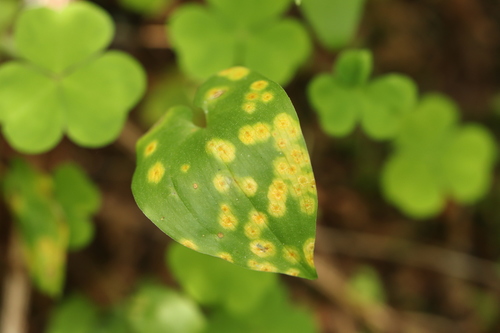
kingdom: Fungi
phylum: Basidiomycota
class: Pucciniomycetes
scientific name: Pucciniomycetes
